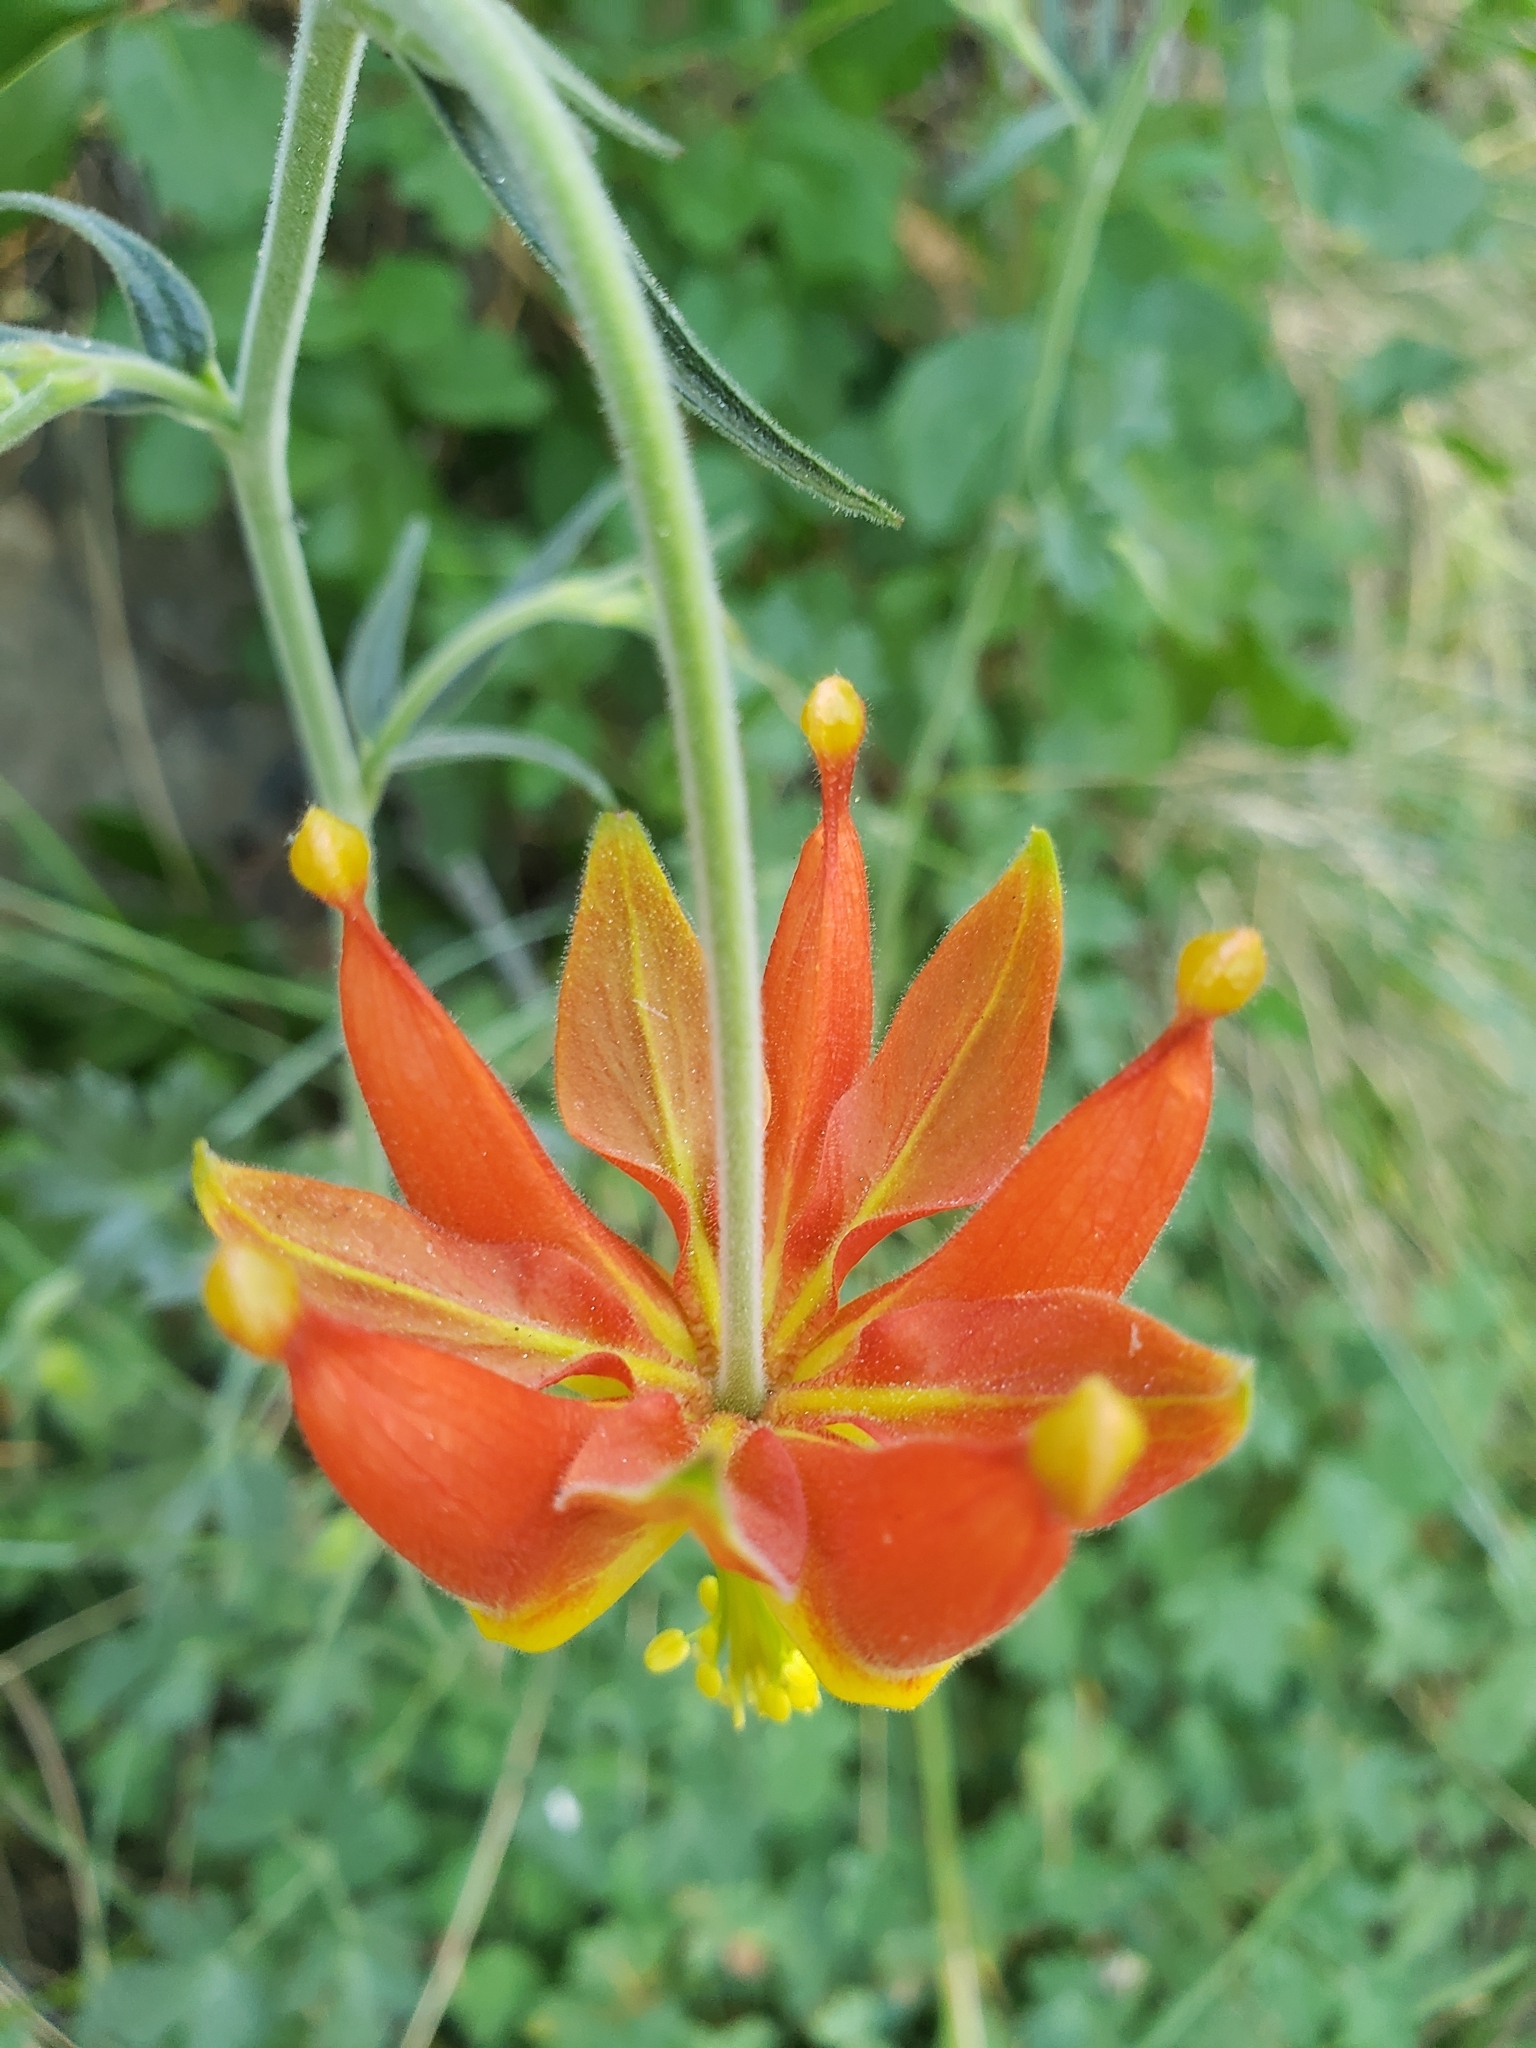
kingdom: Plantae
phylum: Tracheophyta
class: Magnoliopsida
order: Ranunculales
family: Ranunculaceae
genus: Aquilegia
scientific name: Aquilegia eximia
